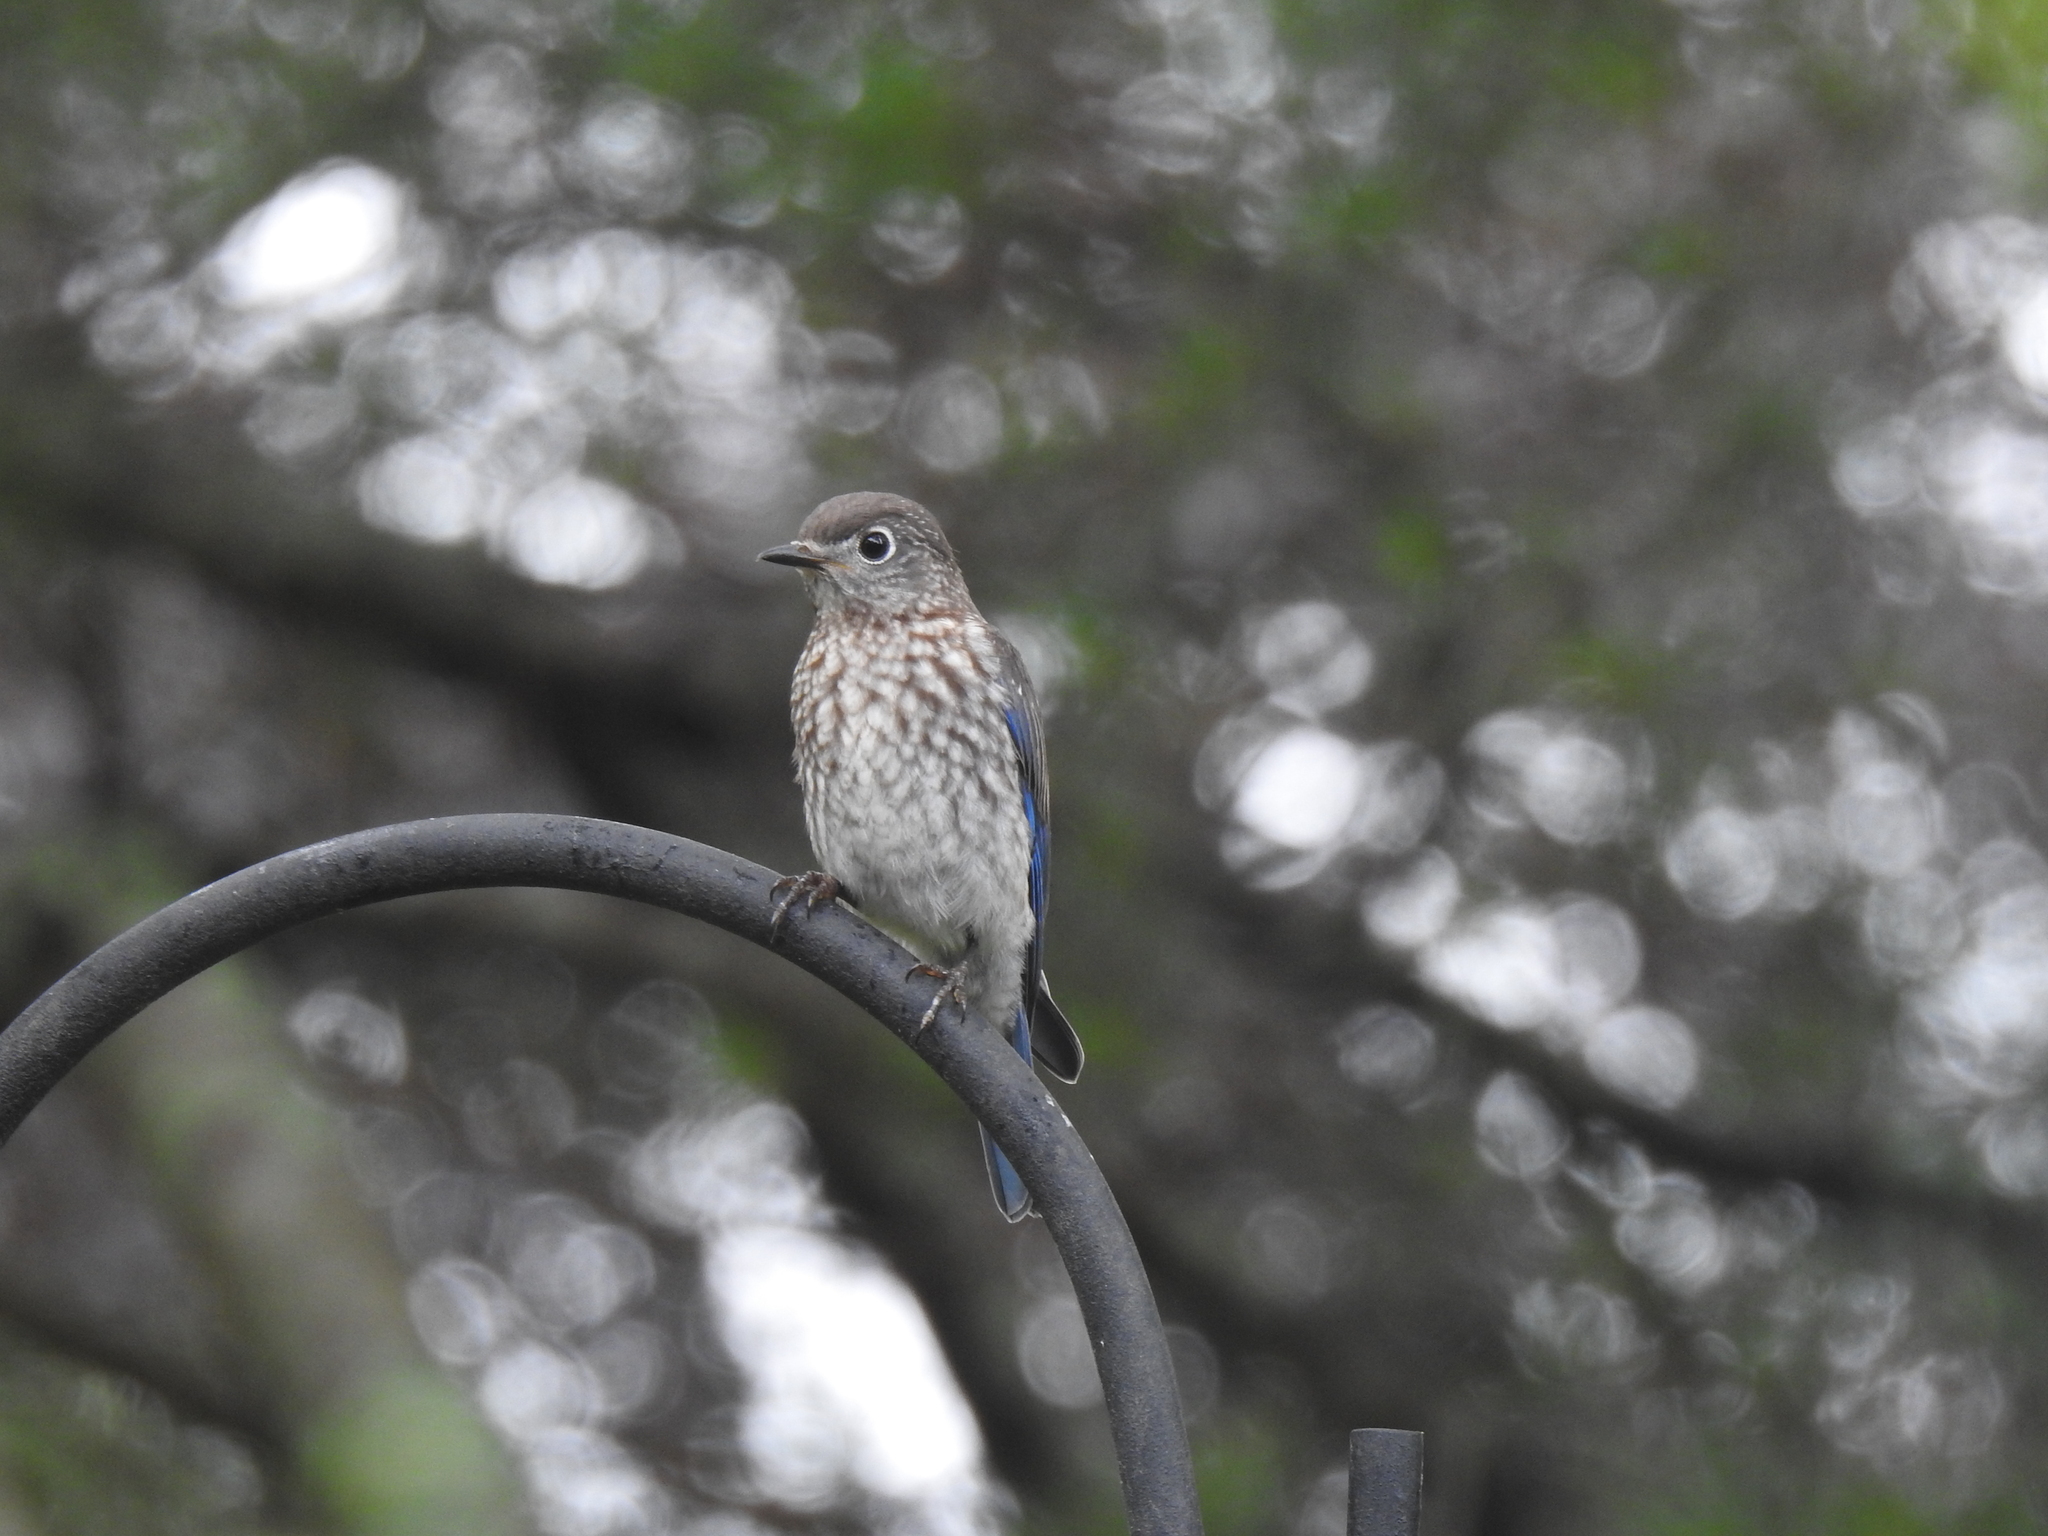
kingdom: Animalia
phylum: Chordata
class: Aves
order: Passeriformes
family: Turdidae
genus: Sialia
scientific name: Sialia sialis
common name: Eastern bluebird
